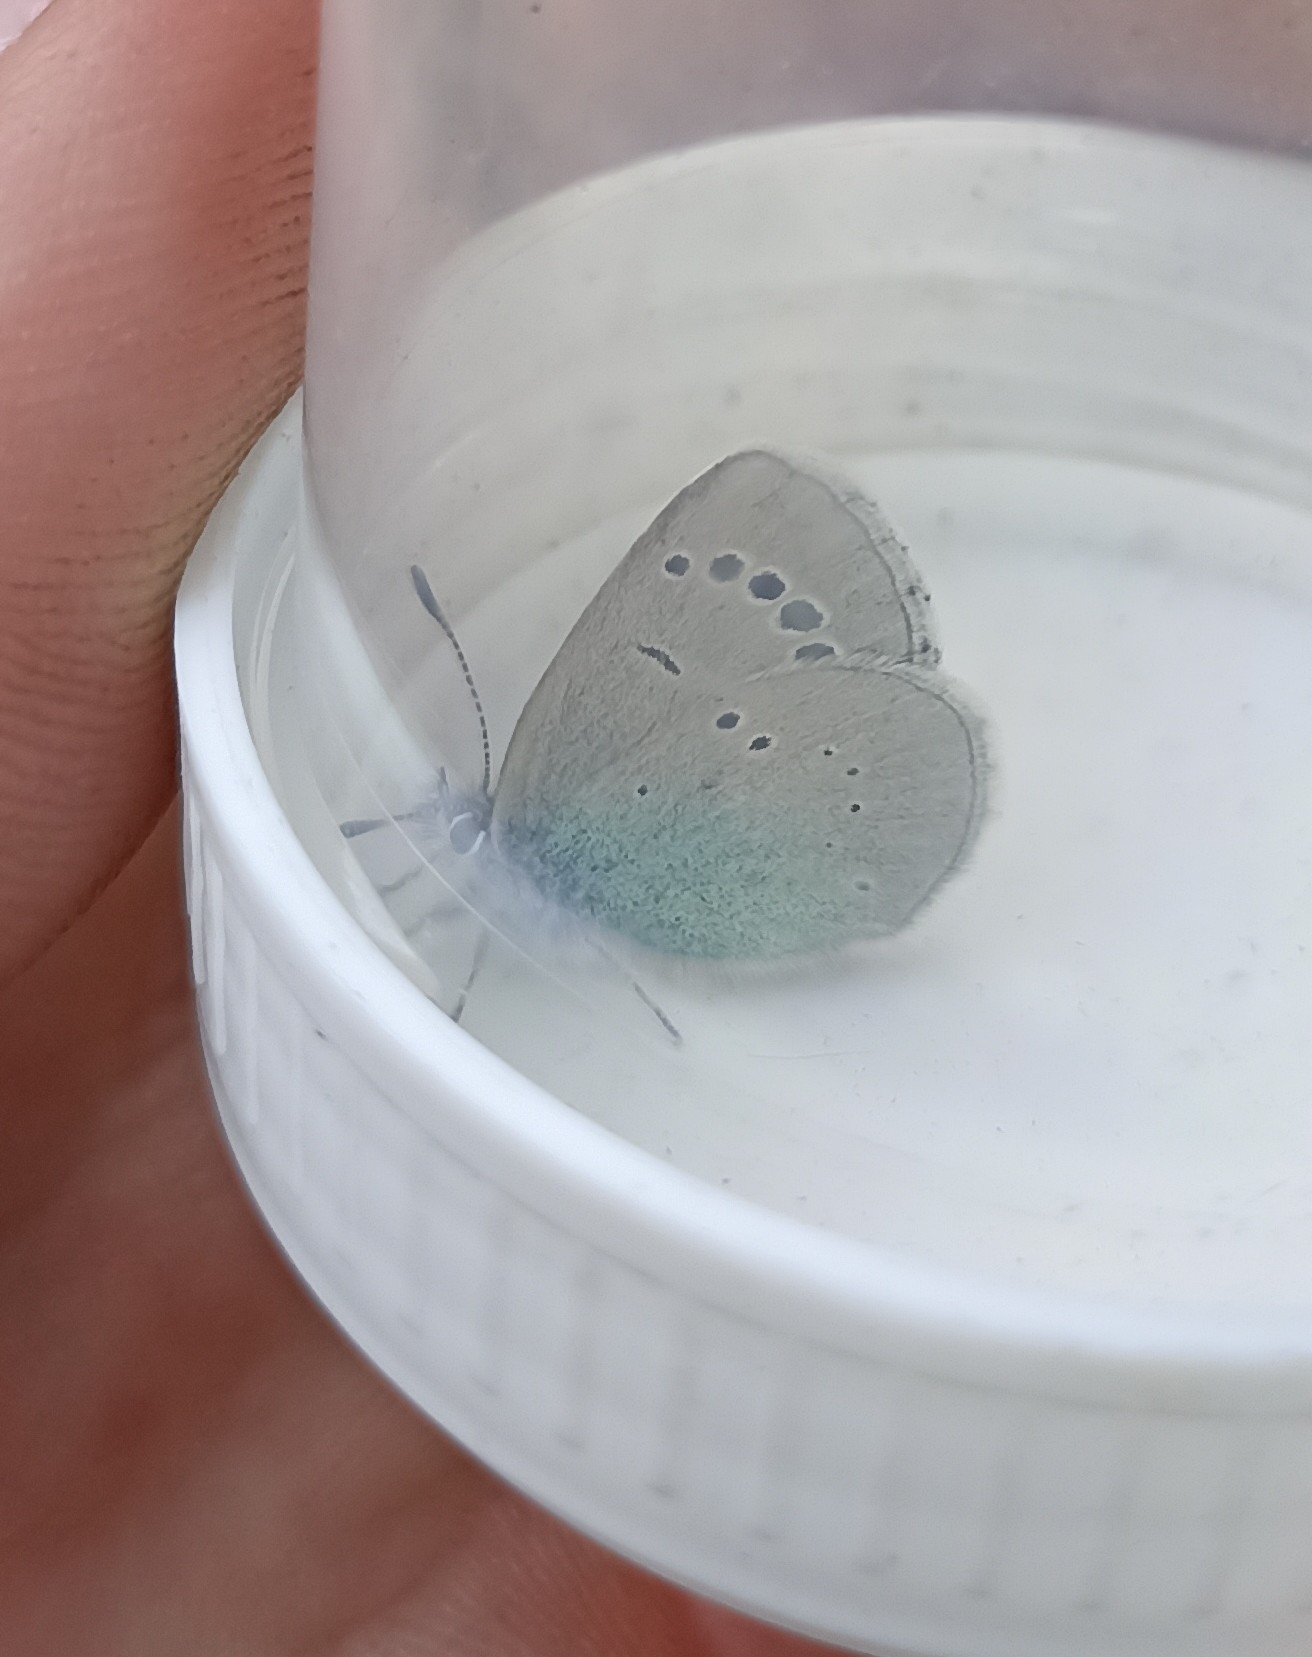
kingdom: Animalia
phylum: Arthropoda
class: Insecta
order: Lepidoptera
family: Lycaenidae
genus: Glaucopsyche
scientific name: Glaucopsyche alexis
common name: Green-underside blue
